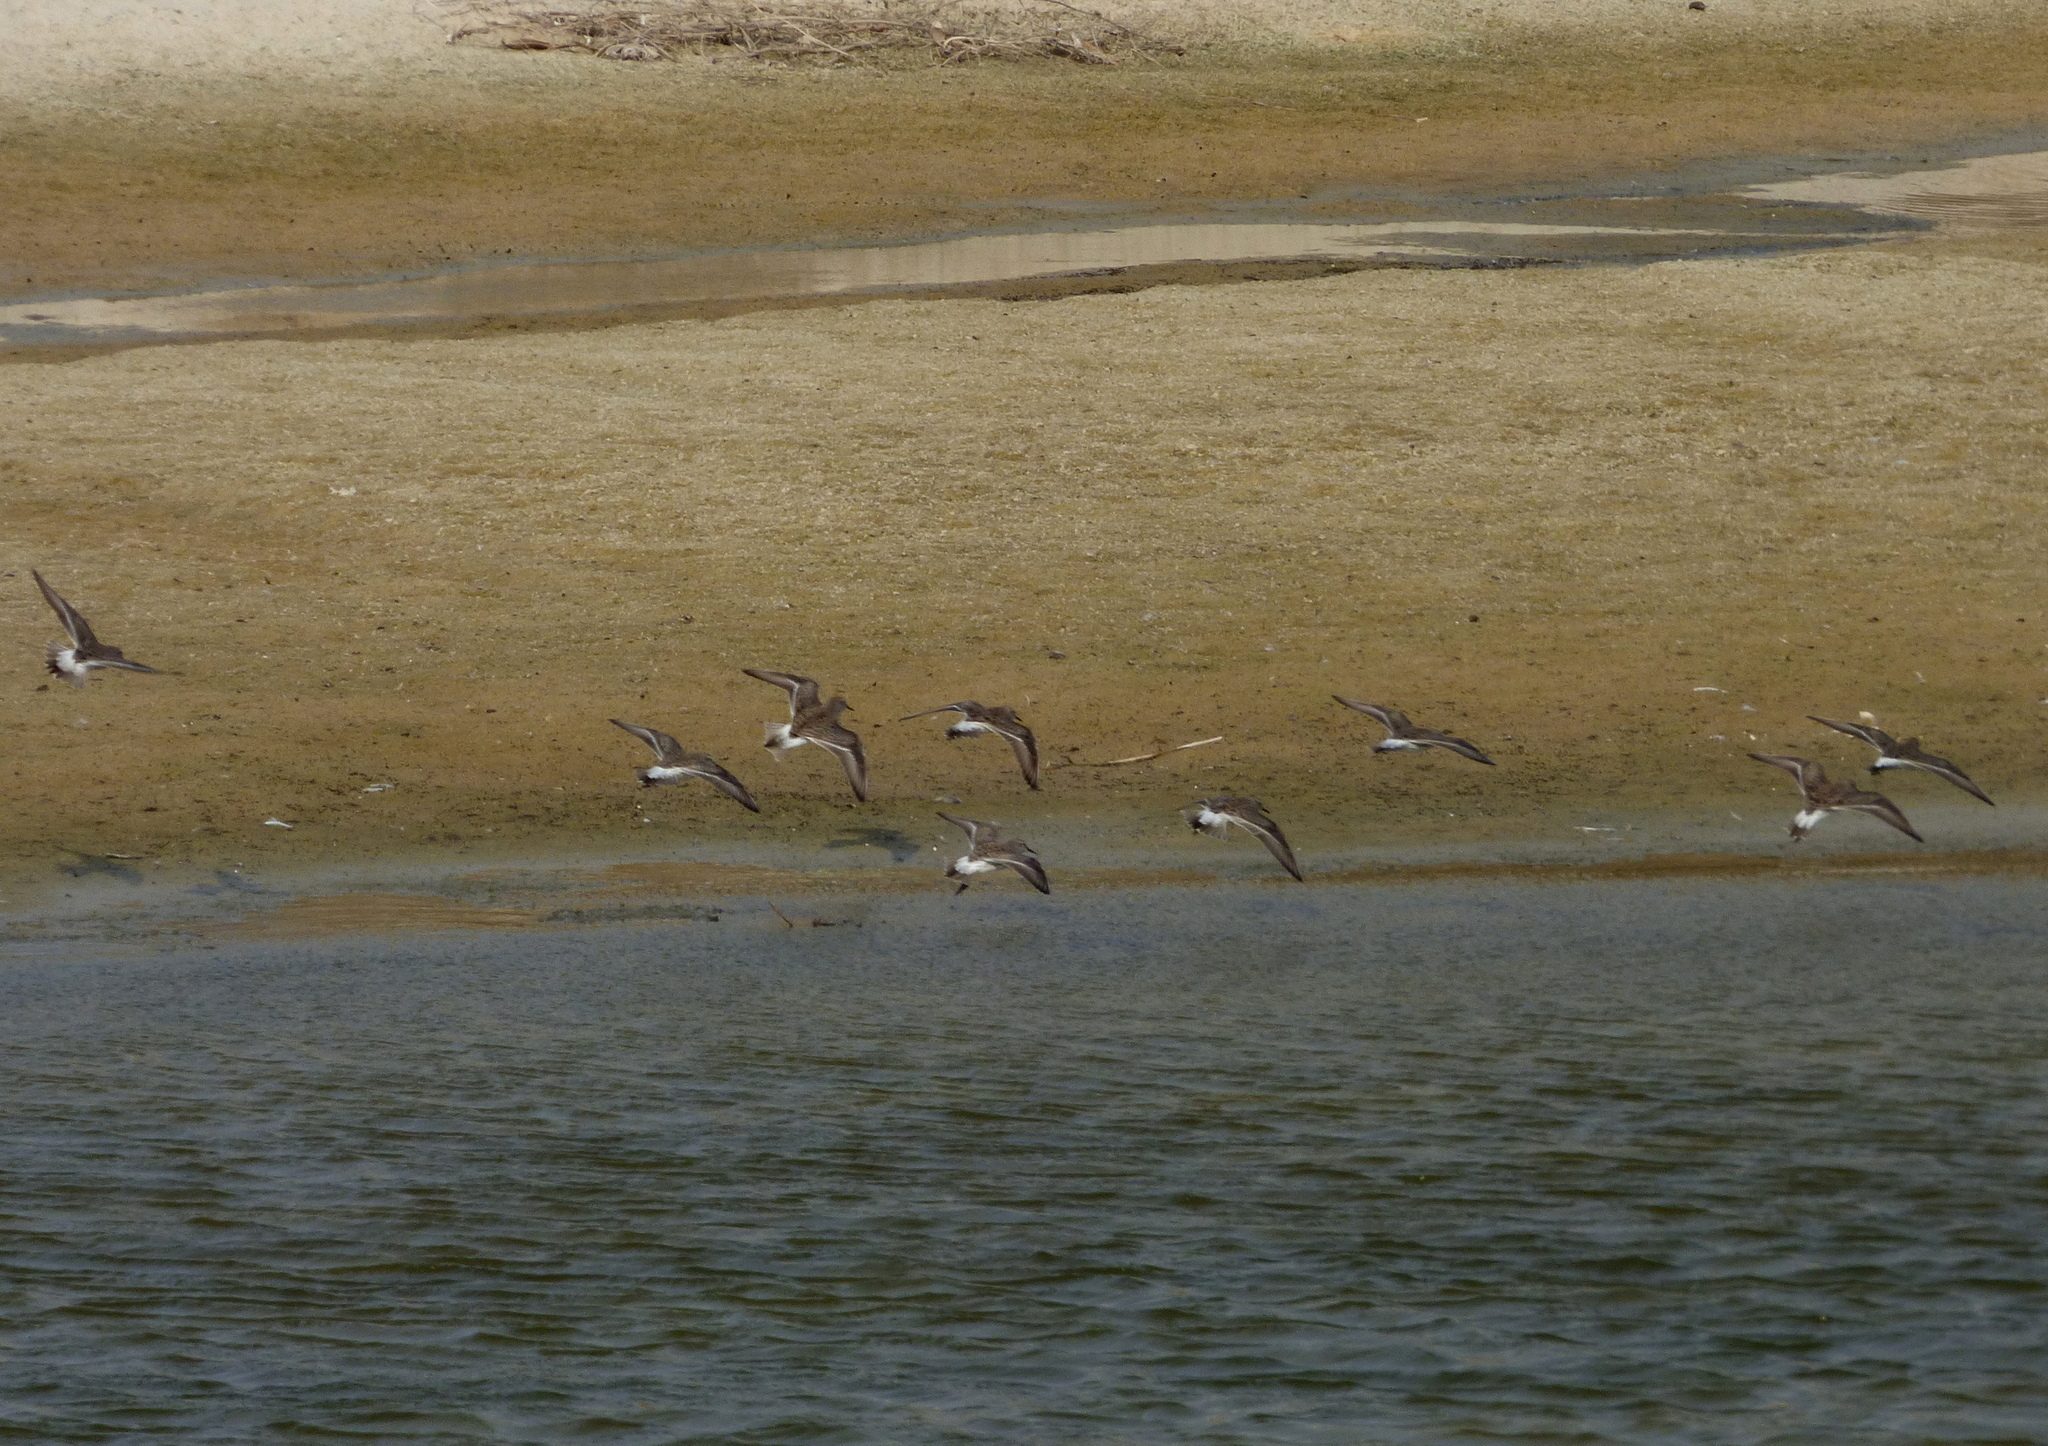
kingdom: Animalia
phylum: Chordata
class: Aves
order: Charadriiformes
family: Scolopacidae
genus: Calidris
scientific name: Calidris fuscicollis
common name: White-rumped sandpiper
